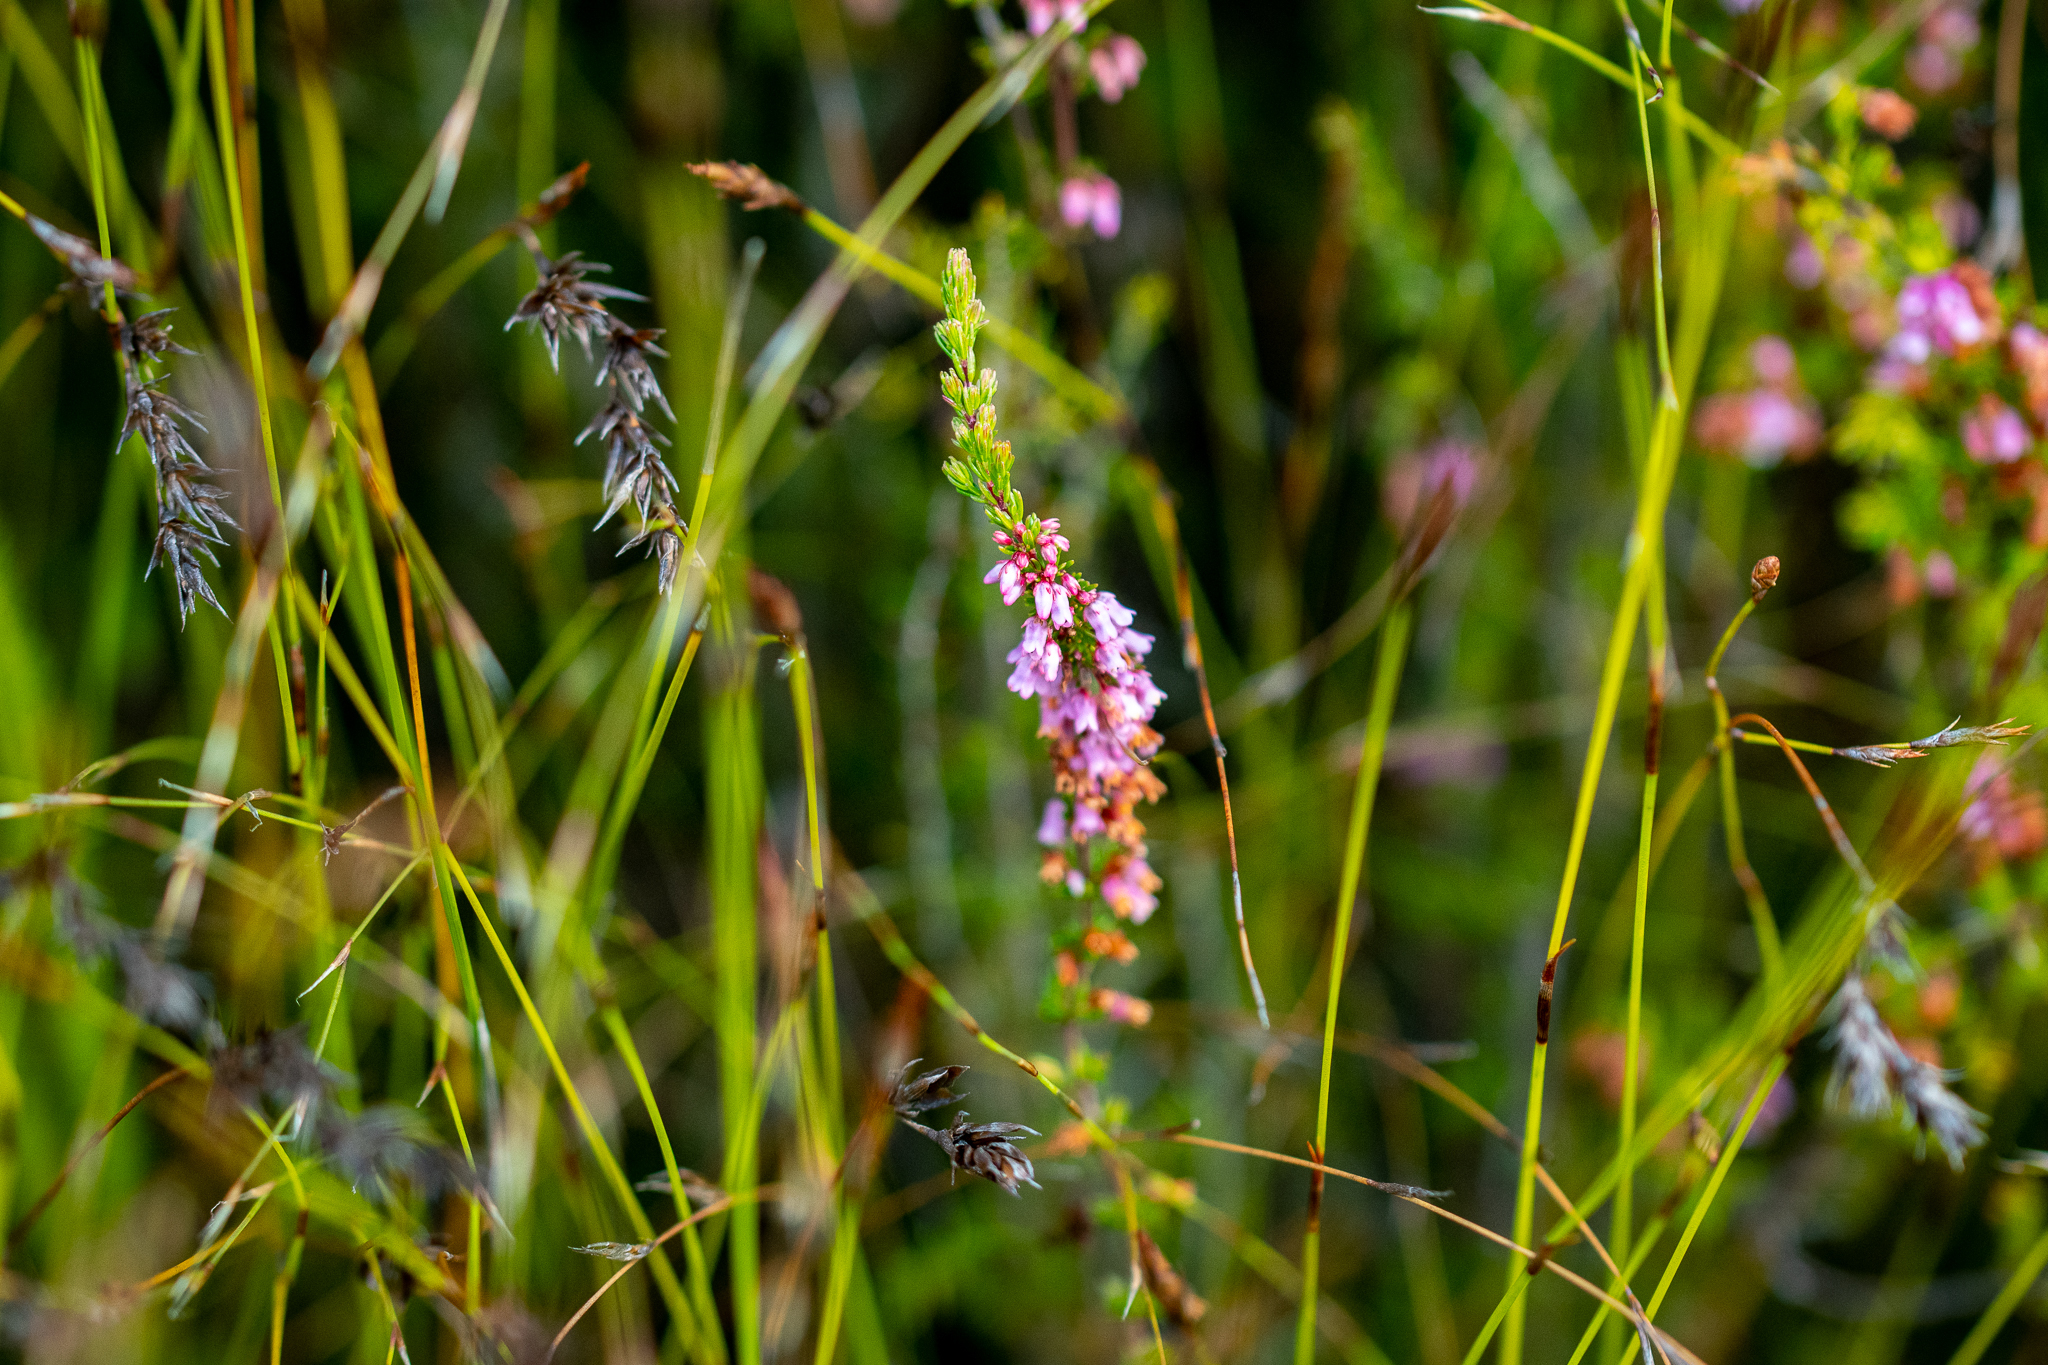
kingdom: Plantae
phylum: Tracheophyta
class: Magnoliopsida
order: Ericales
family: Ericaceae
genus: Erica
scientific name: Erica intervallaris
